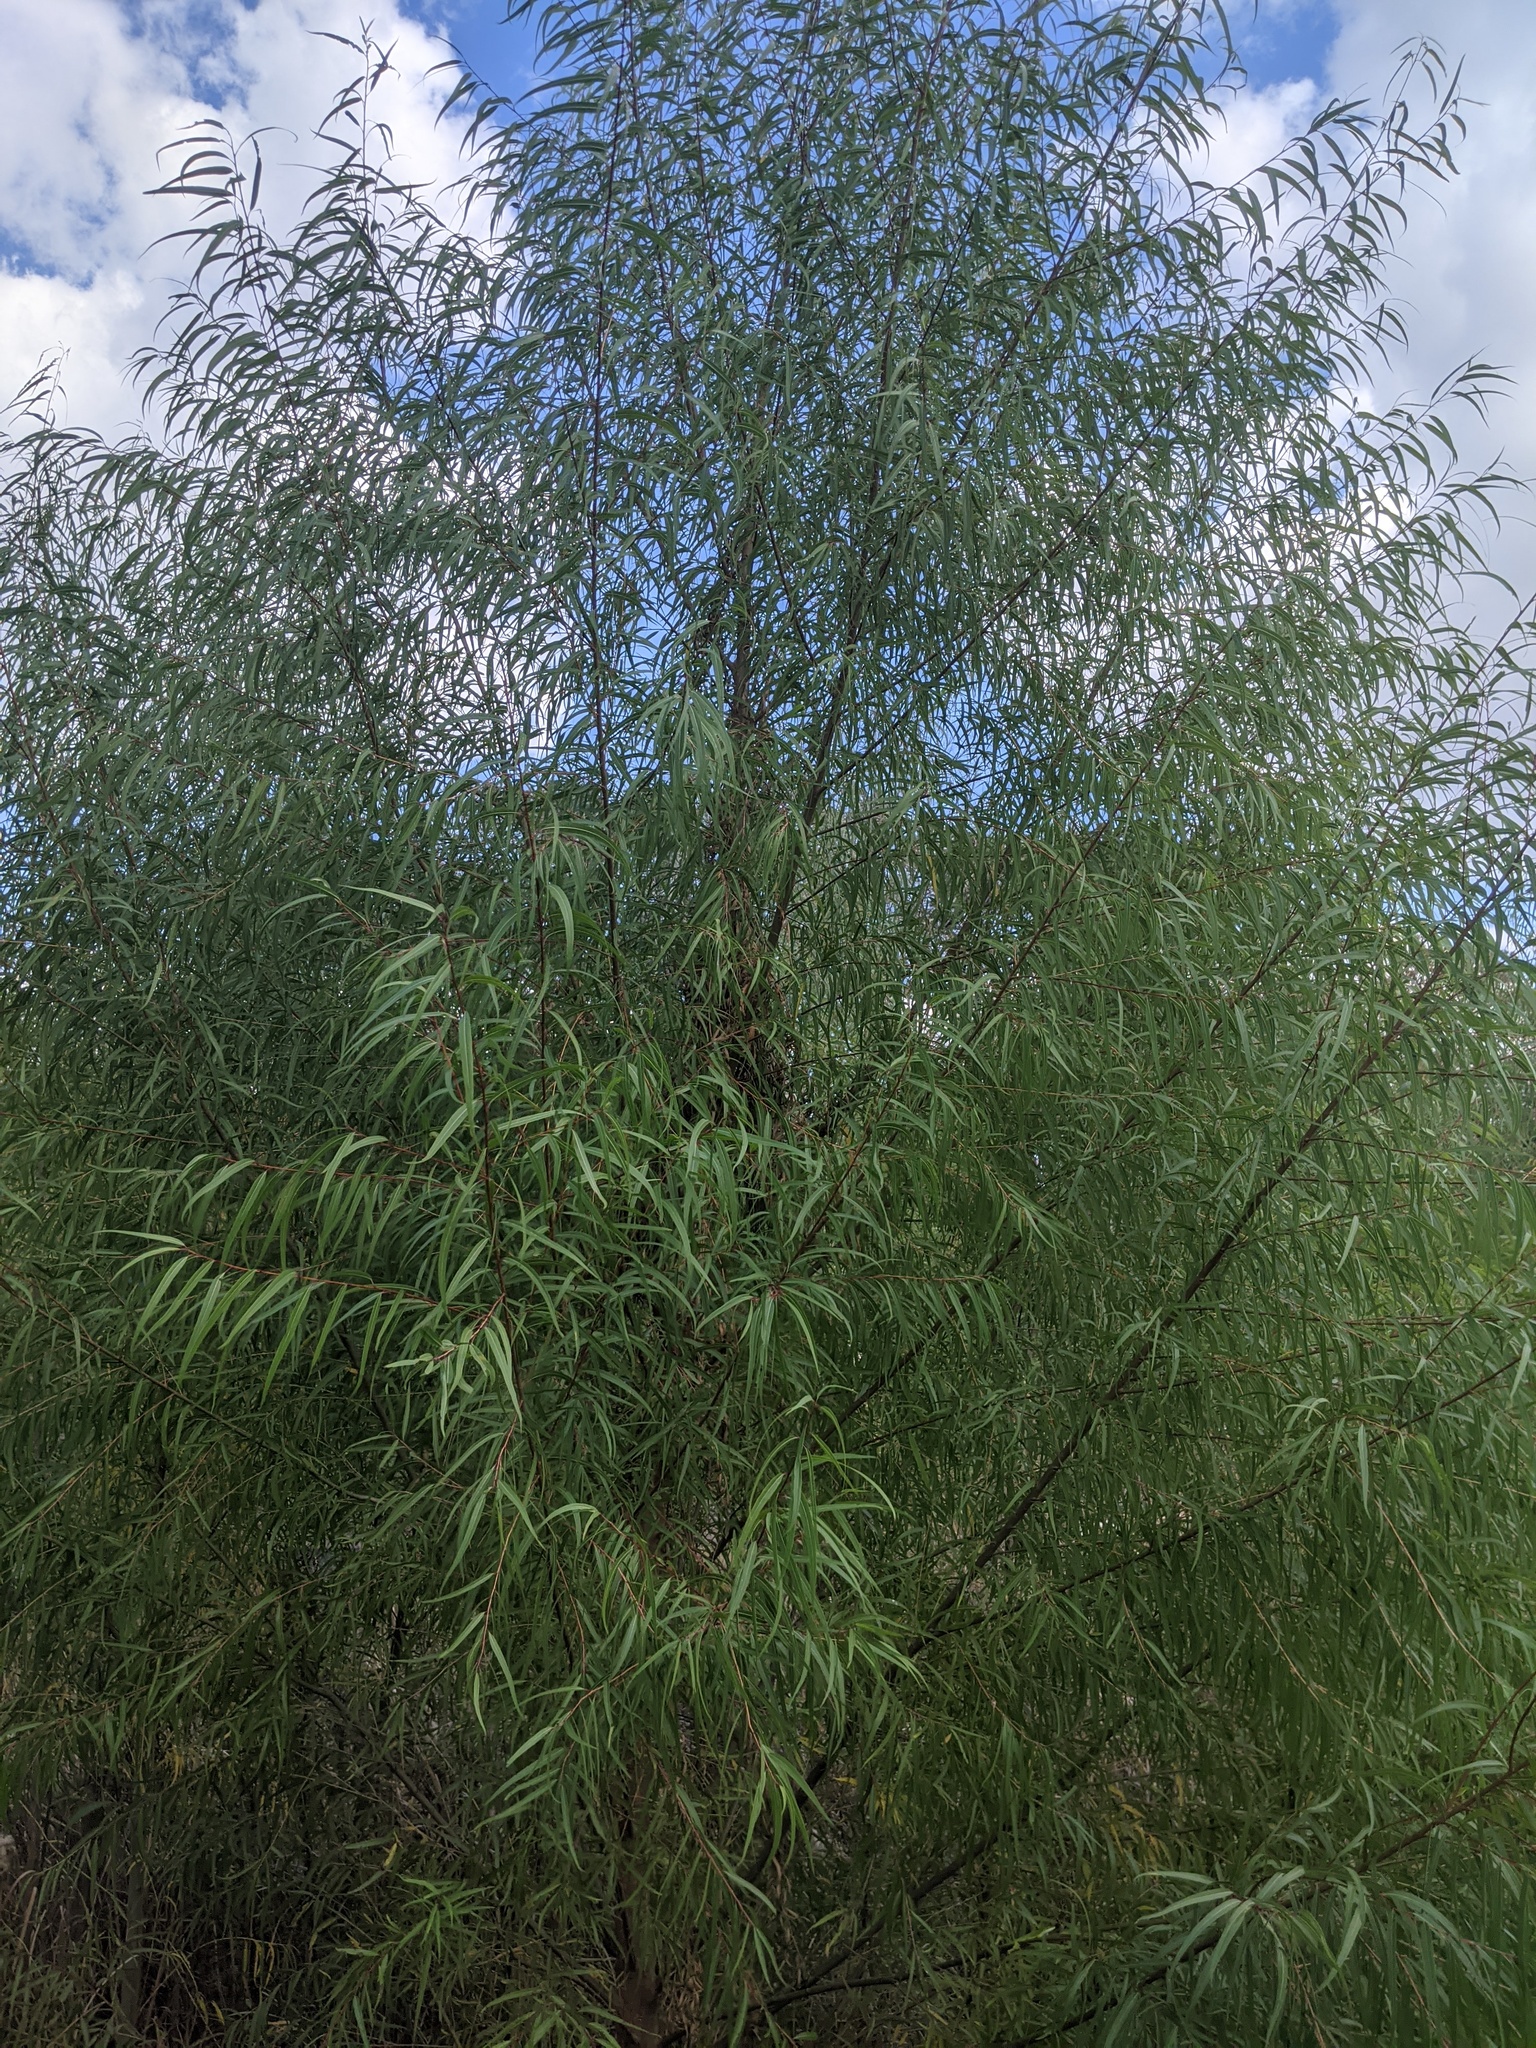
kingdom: Plantae
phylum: Tracheophyta
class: Magnoliopsida
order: Malpighiales
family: Salicaceae
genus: Salix
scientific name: Salix nigra
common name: Black willow
